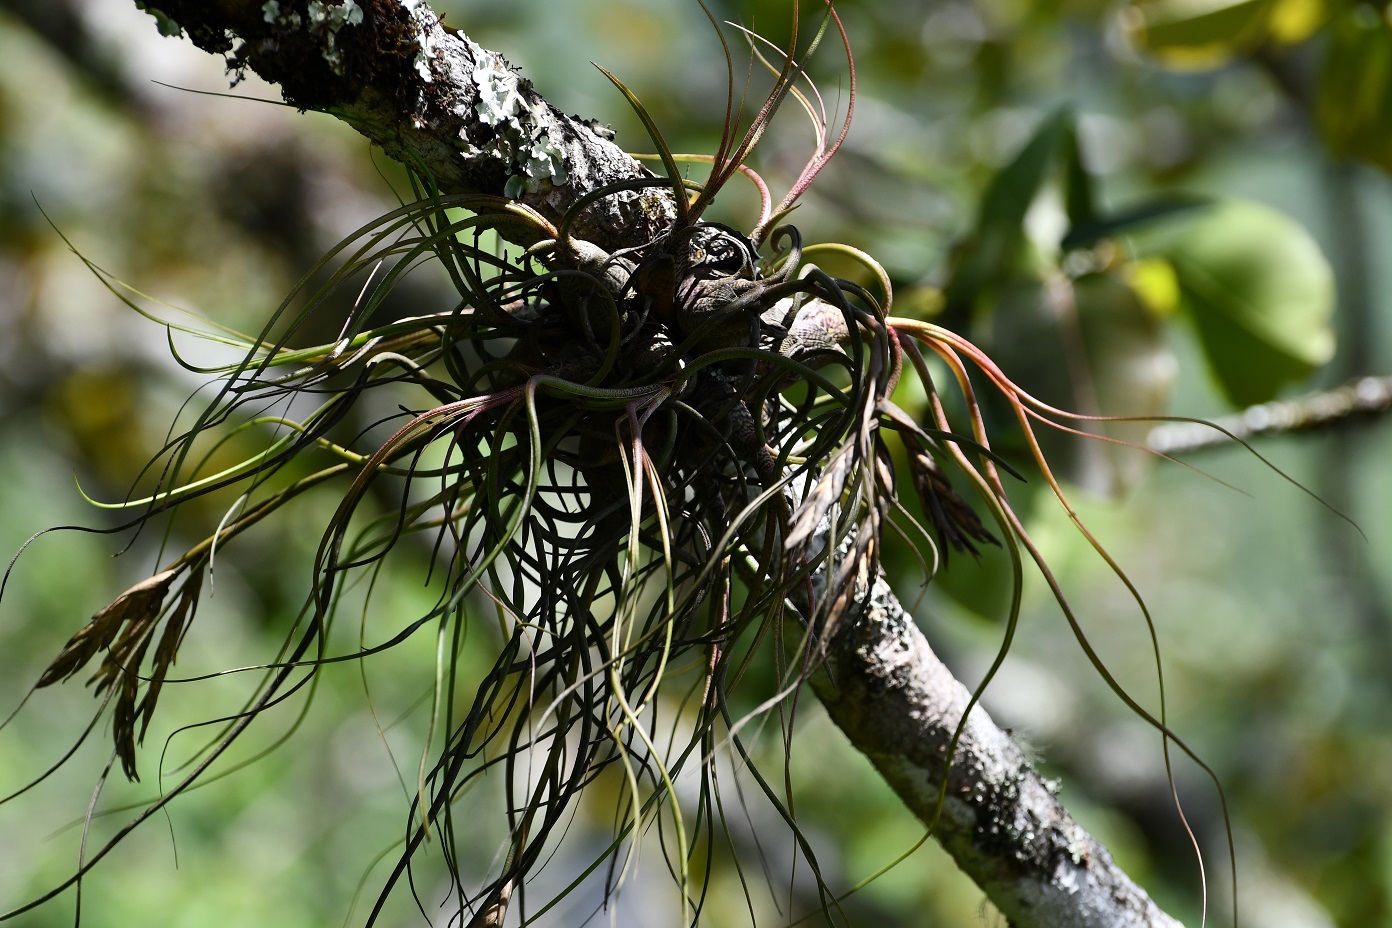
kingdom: Plantae
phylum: Tracheophyta
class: Liliopsida
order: Poales
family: Bromeliaceae
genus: Tillandsia
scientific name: Tillandsia butzii
